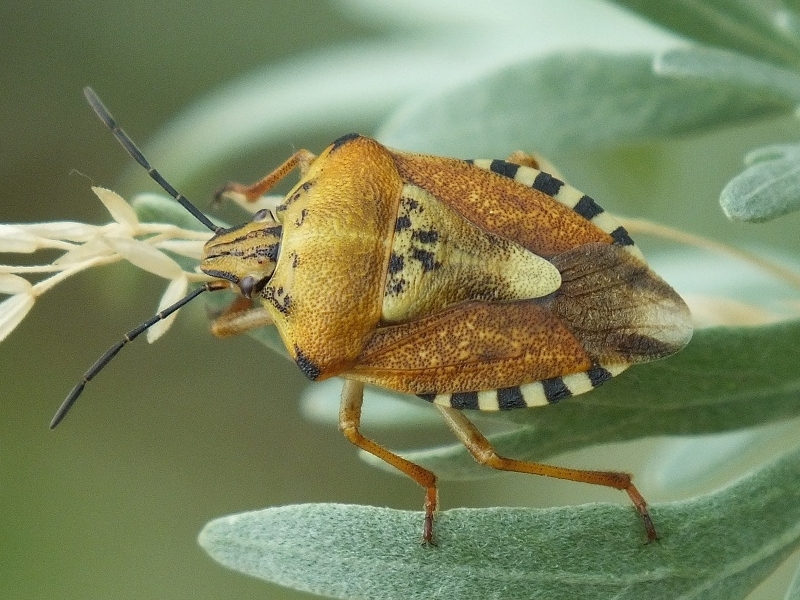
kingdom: Animalia
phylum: Arthropoda
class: Insecta
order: Hemiptera
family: Pentatomidae
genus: Carpocoris
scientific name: Carpocoris purpureipennis
